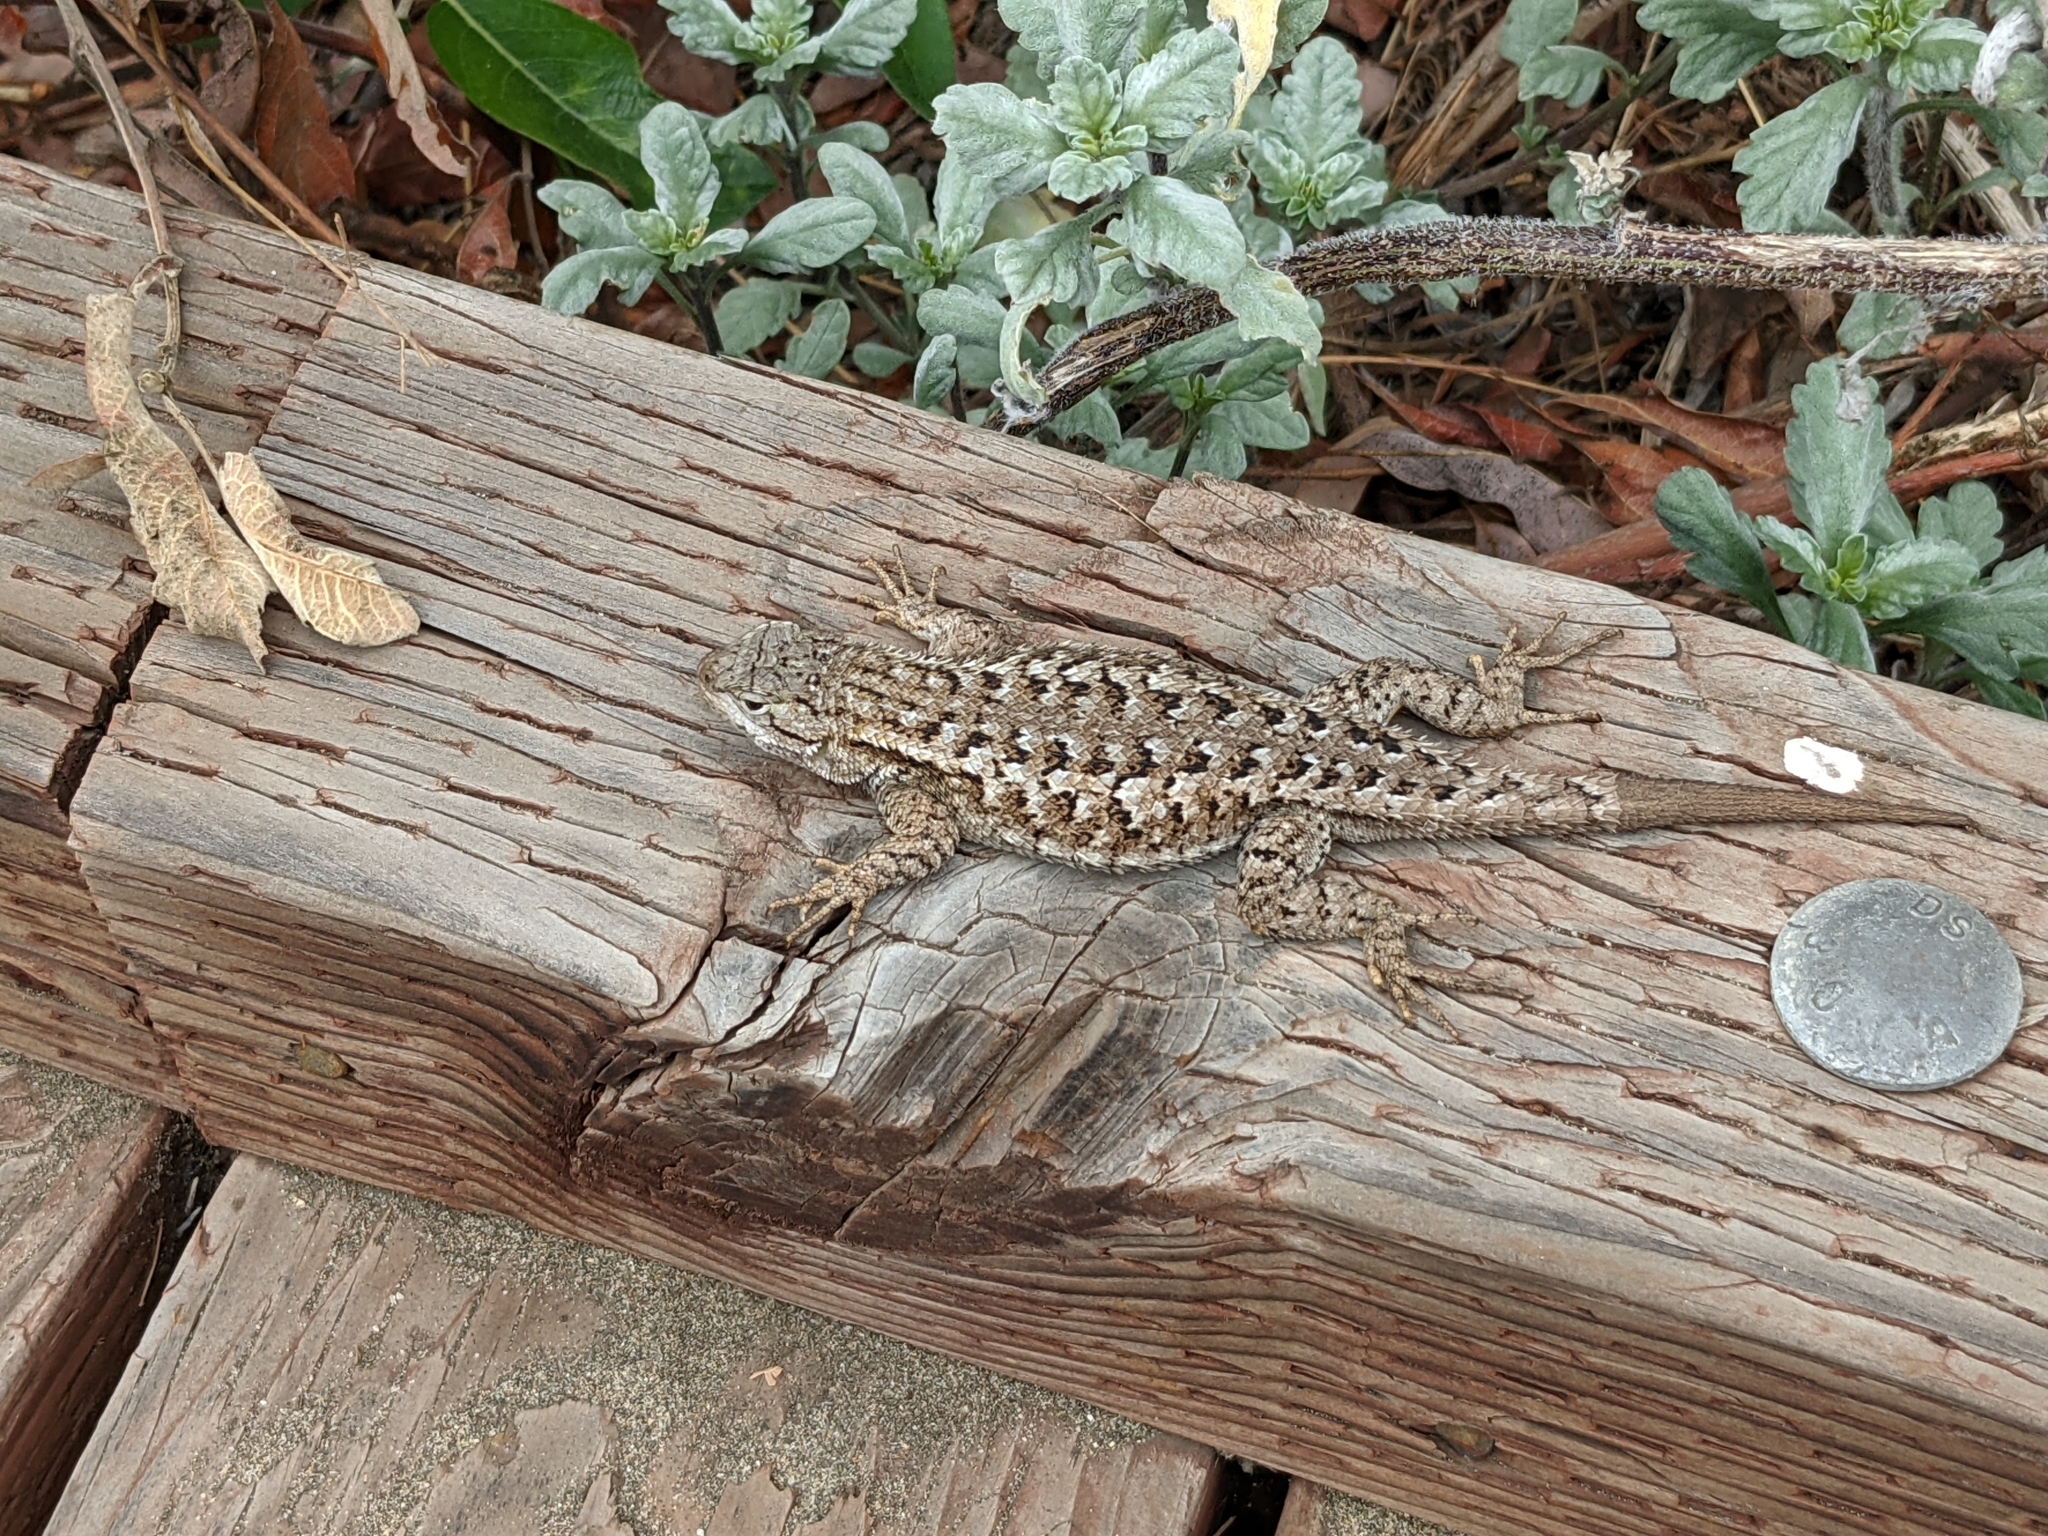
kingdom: Animalia
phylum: Chordata
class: Squamata
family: Phrynosomatidae
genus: Sceloporus
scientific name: Sceloporus occidentalis
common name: Western fence lizard
